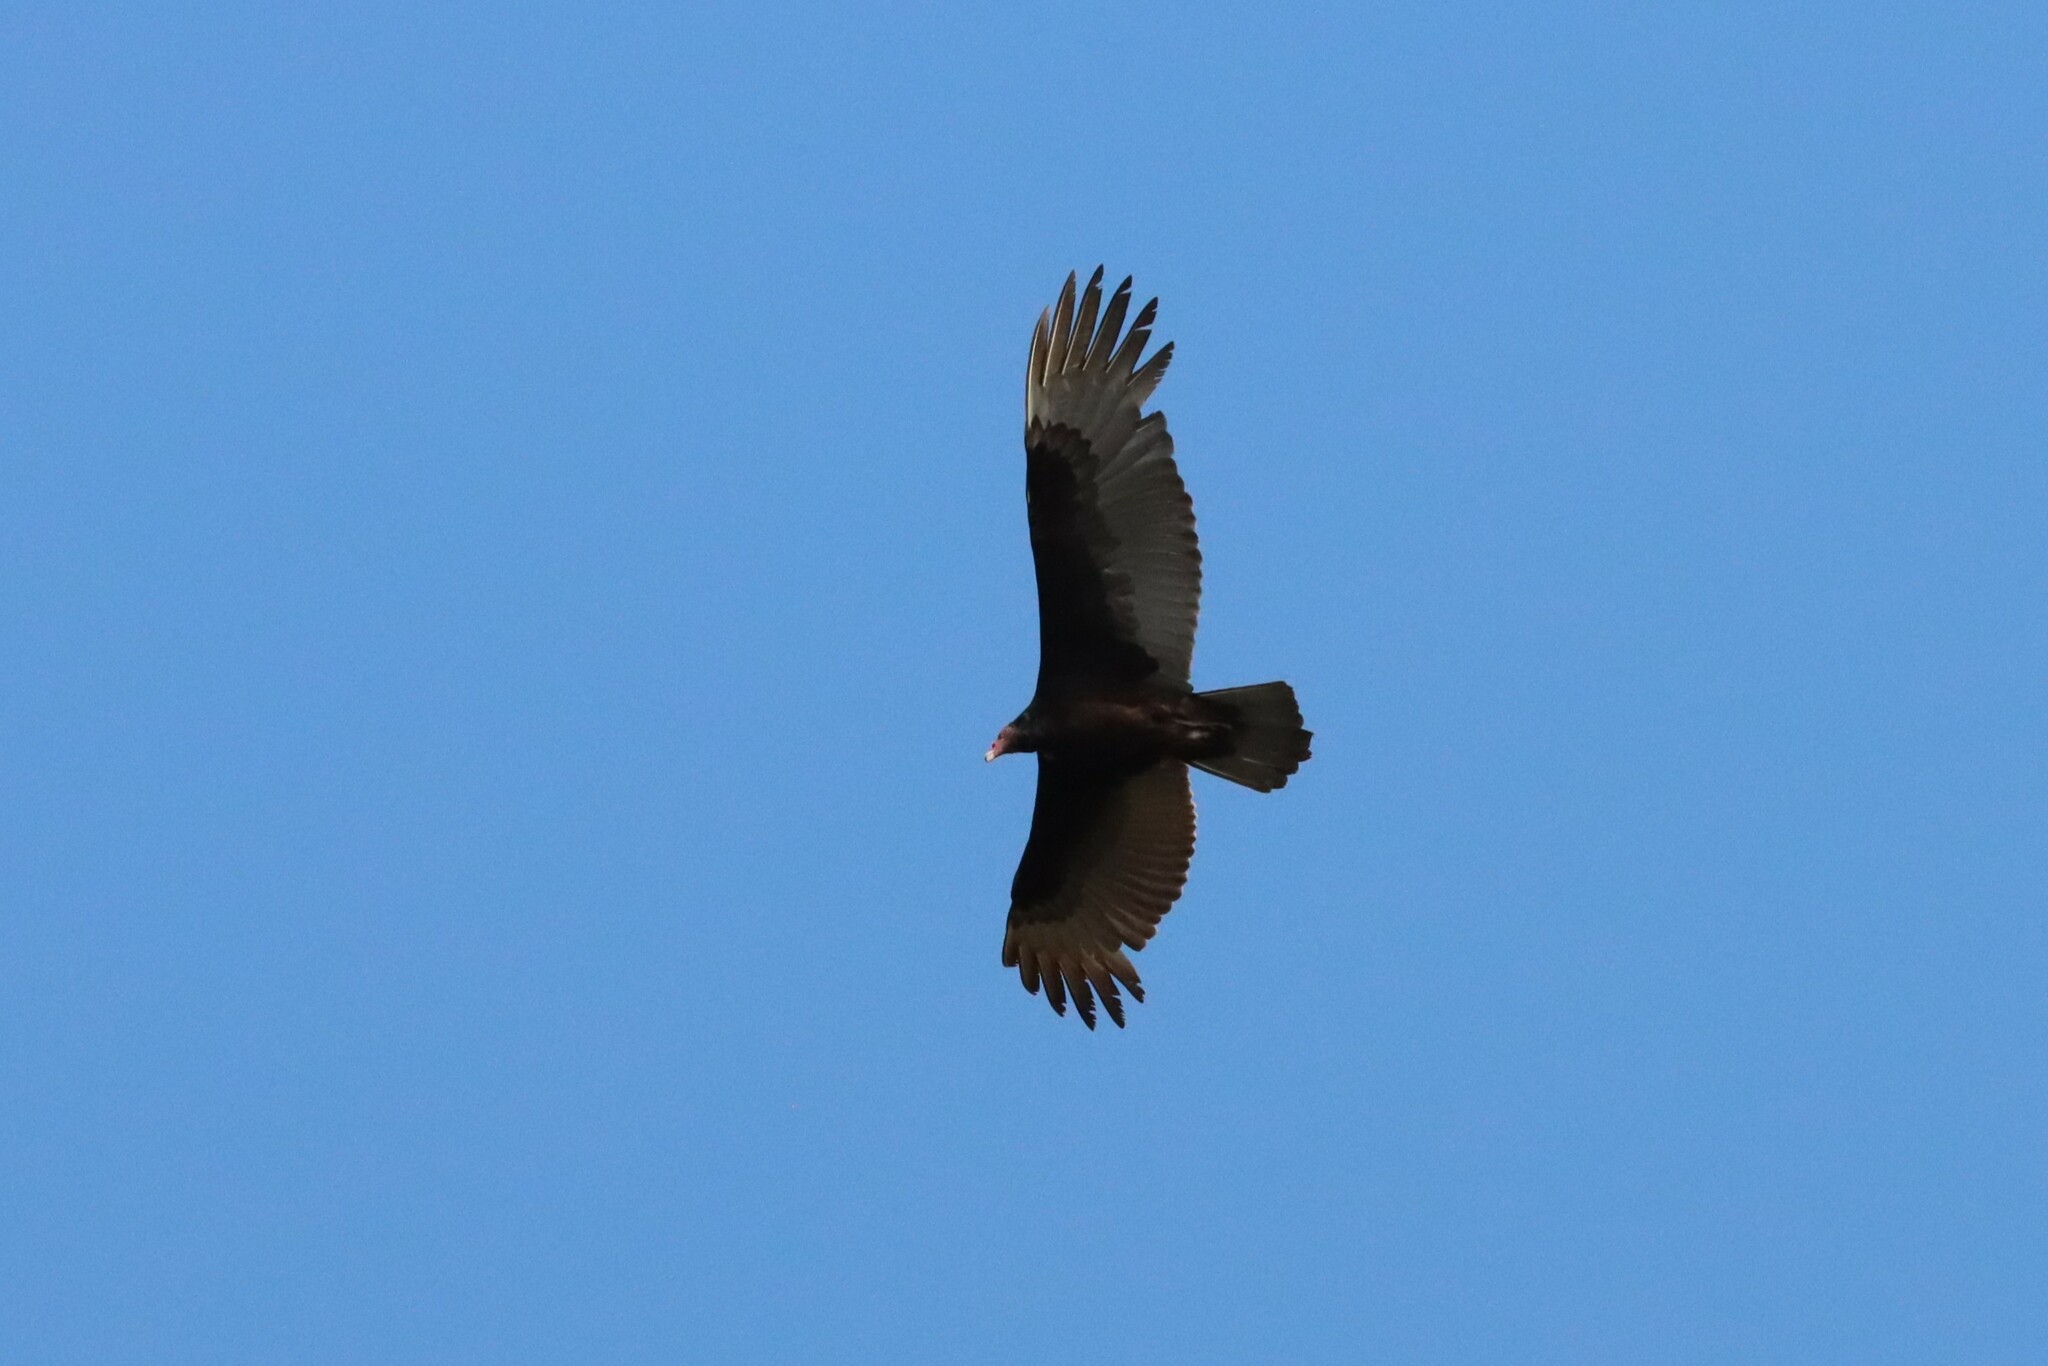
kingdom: Animalia
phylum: Chordata
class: Aves
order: Accipitriformes
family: Cathartidae
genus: Cathartes
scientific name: Cathartes aura
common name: Turkey vulture
